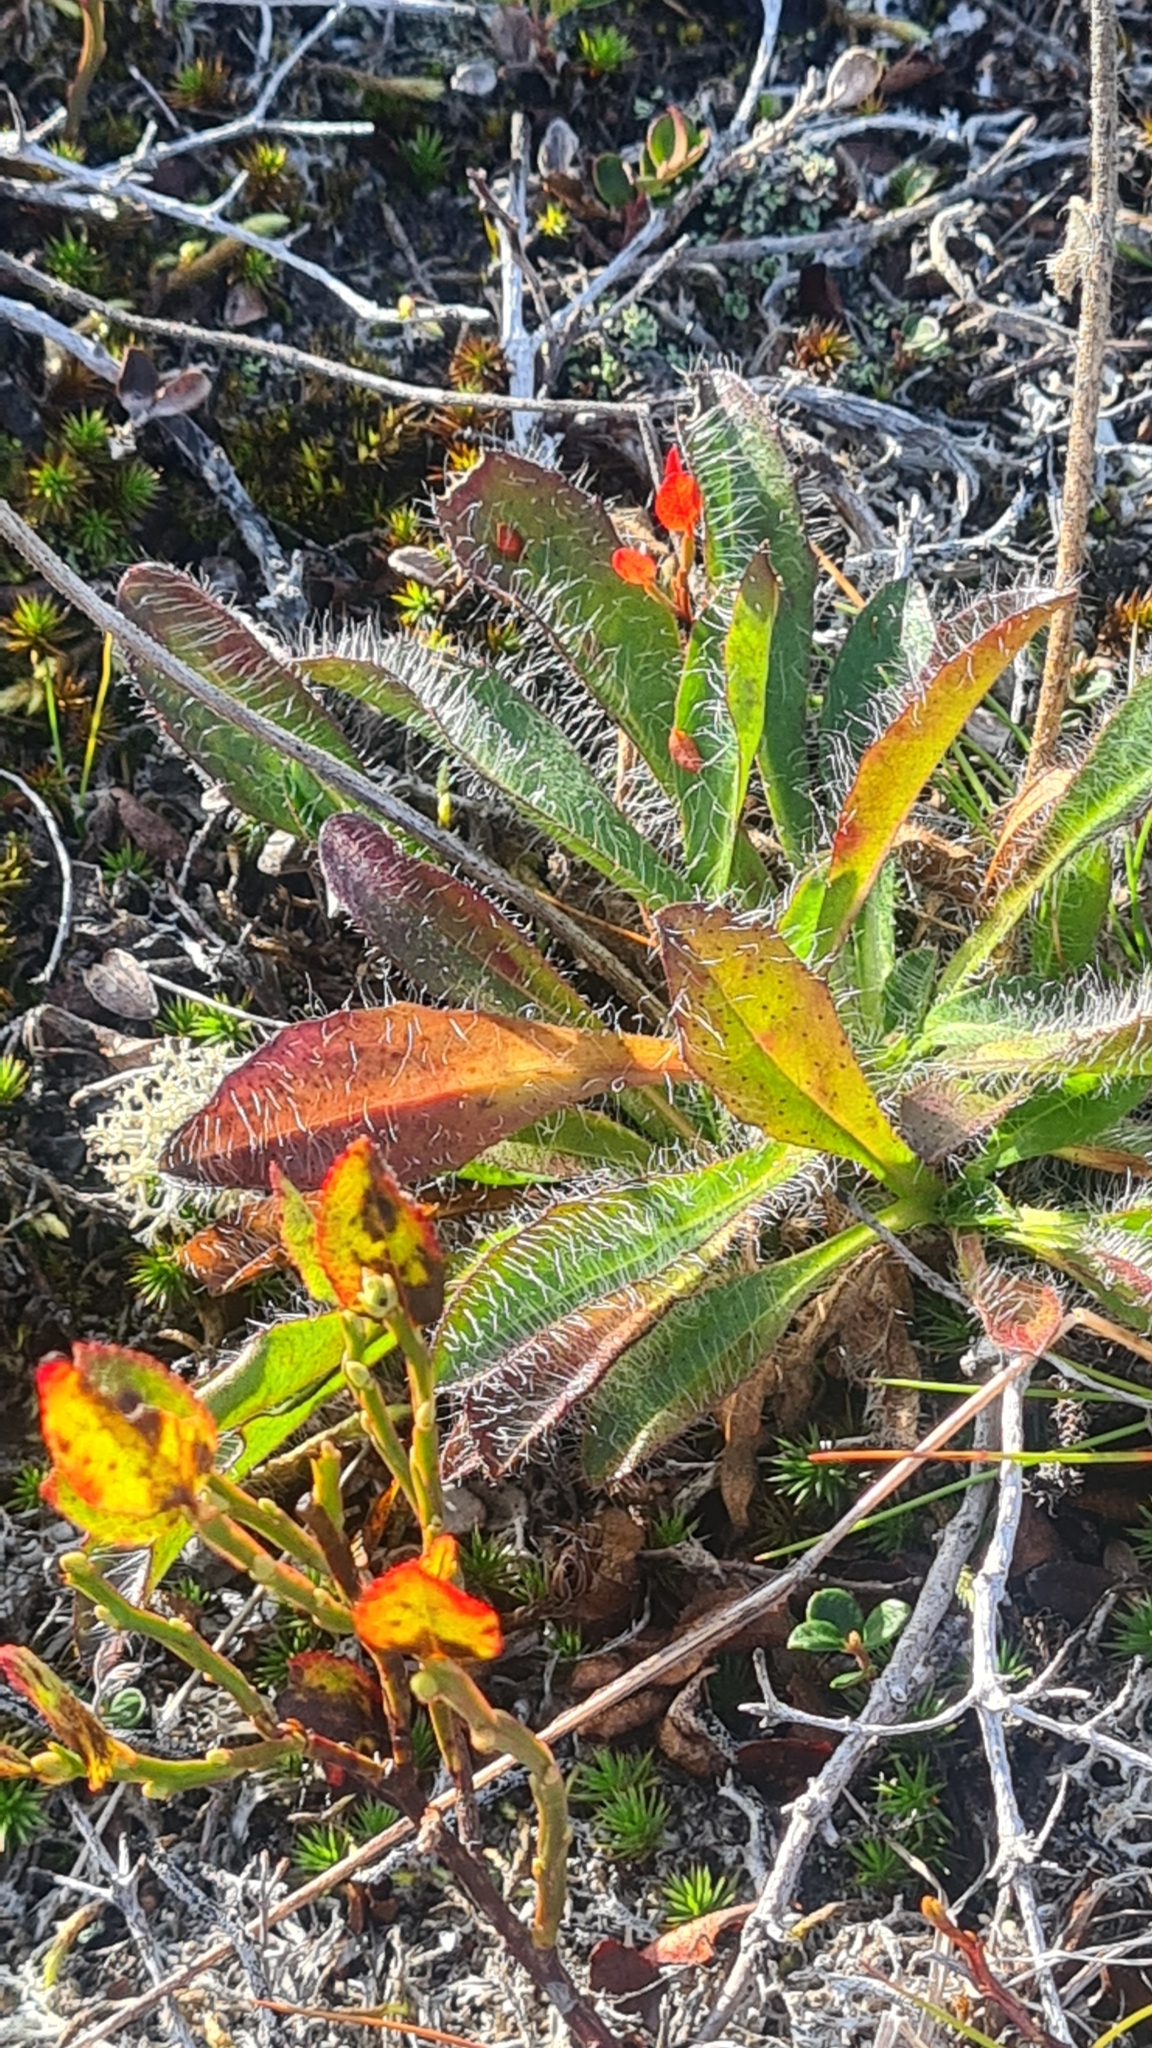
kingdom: Plantae
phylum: Tracheophyta
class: Magnoliopsida
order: Asterales
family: Asteraceae
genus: Hieracium
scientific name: Hieracium alpinum
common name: Alpine hawkweed
